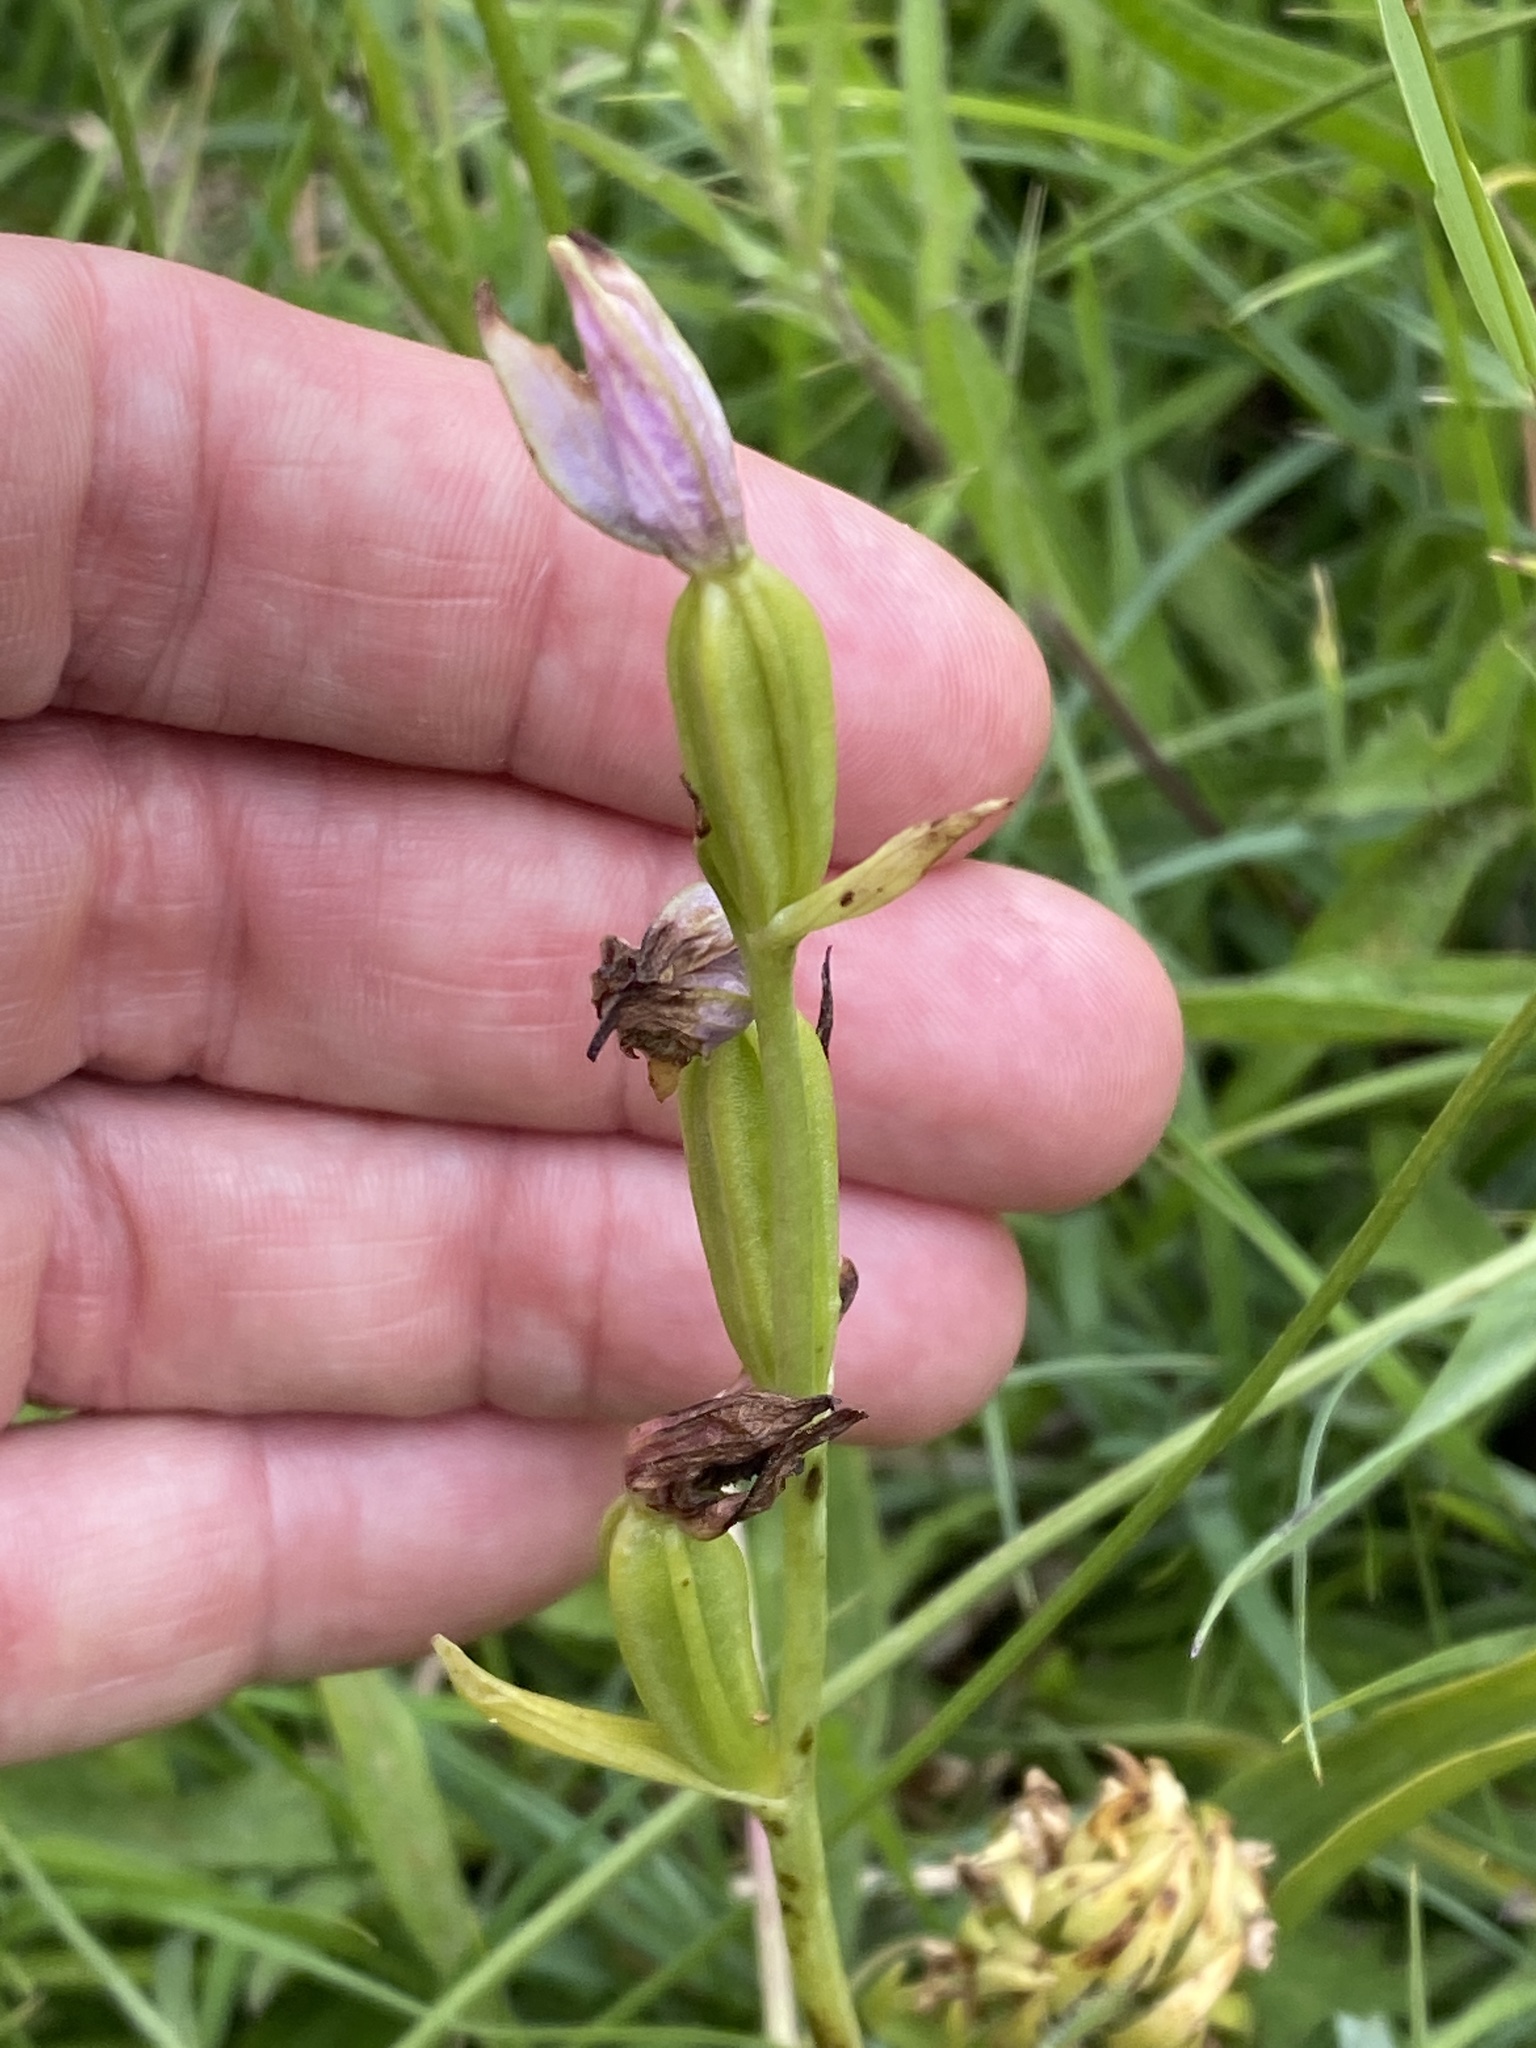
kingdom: Plantae
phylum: Tracheophyta
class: Liliopsida
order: Asparagales
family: Orchidaceae
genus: Ophrys
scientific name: Ophrys apifera
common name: Bee orchid
